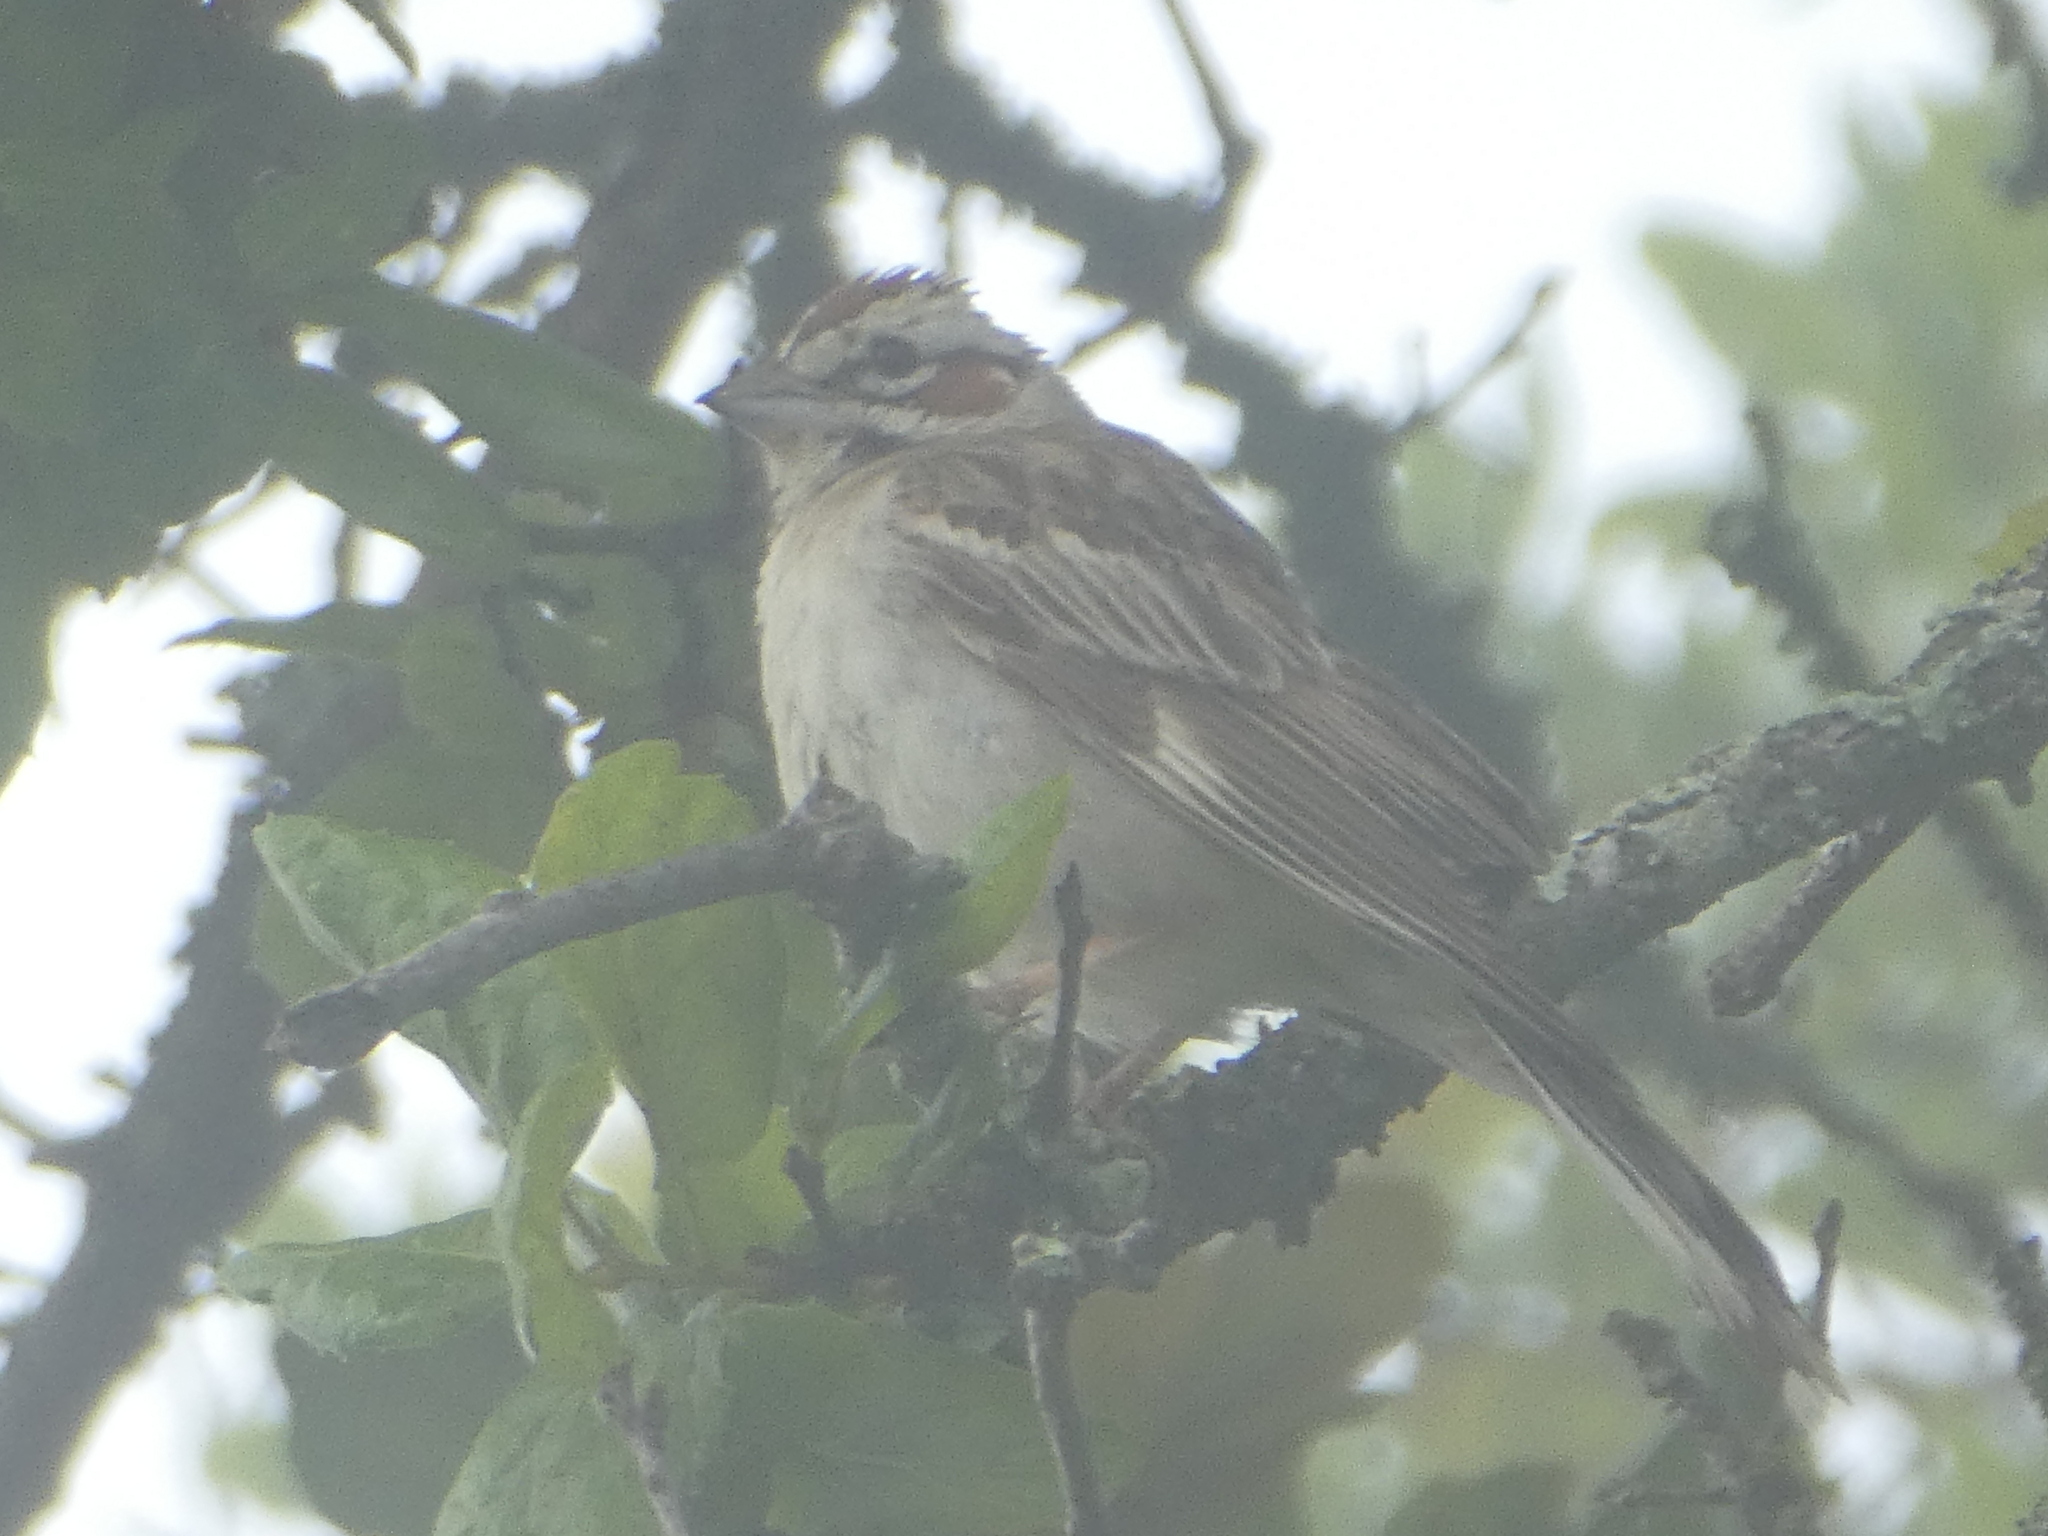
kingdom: Animalia
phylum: Chordata
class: Aves
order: Passeriformes
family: Passerellidae
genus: Chondestes
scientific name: Chondestes grammacus
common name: Lark sparrow
